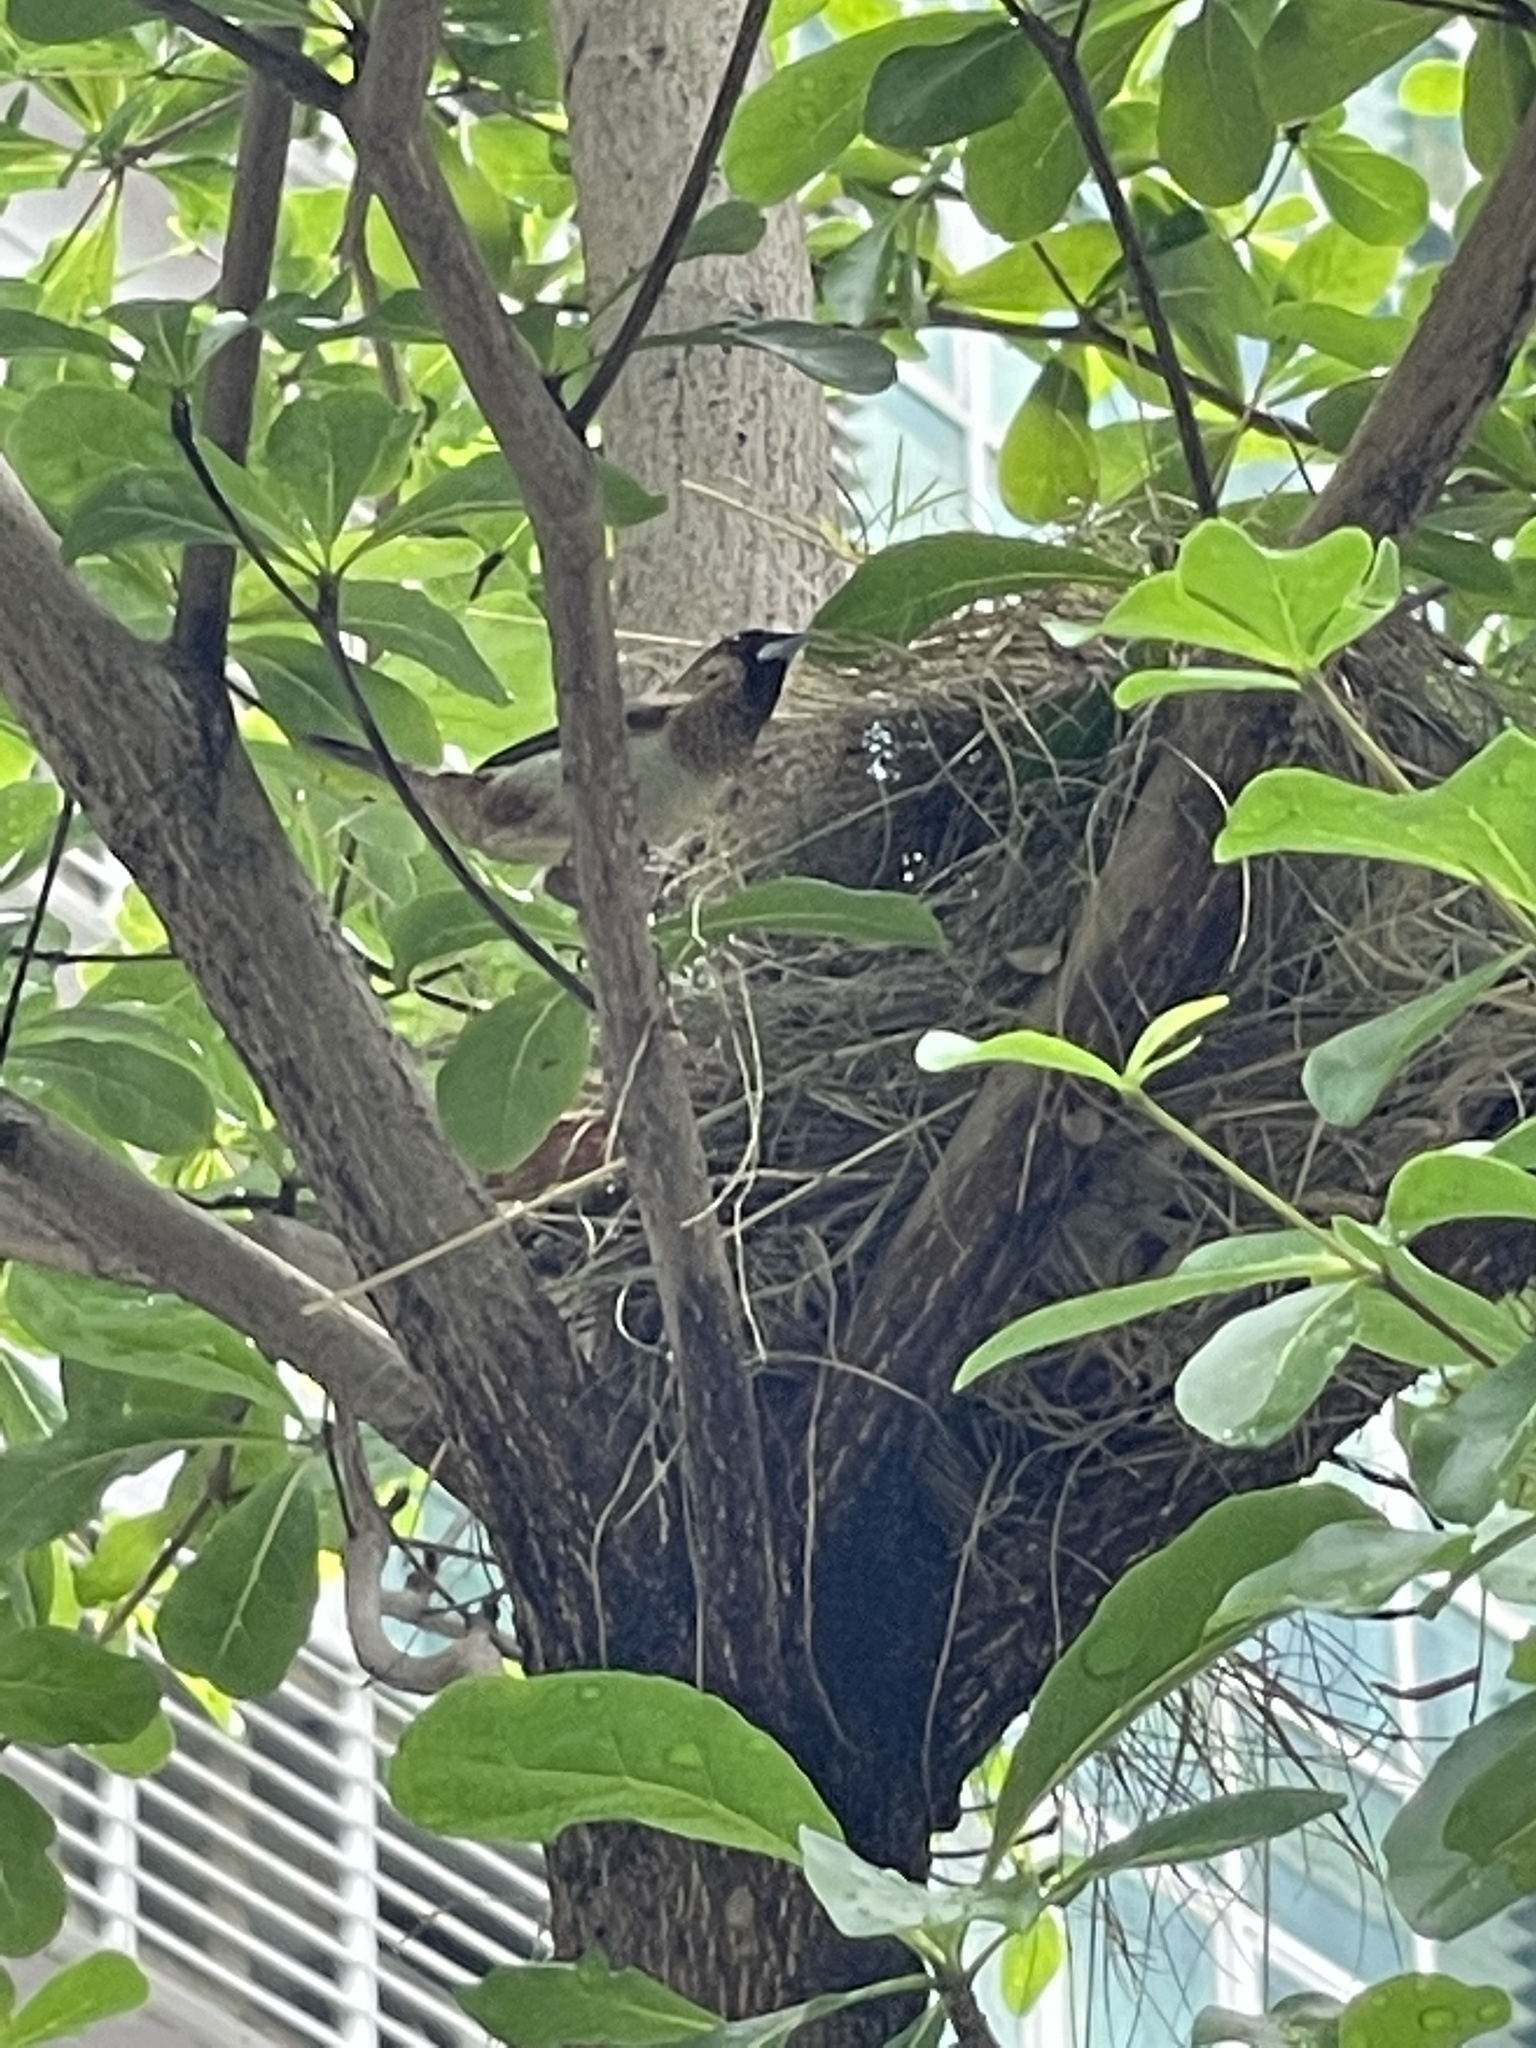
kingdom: Animalia
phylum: Chordata
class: Aves
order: Passeriformes
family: Estrildidae
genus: Lonchura
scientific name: Lonchura striata
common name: White-rumped munia
